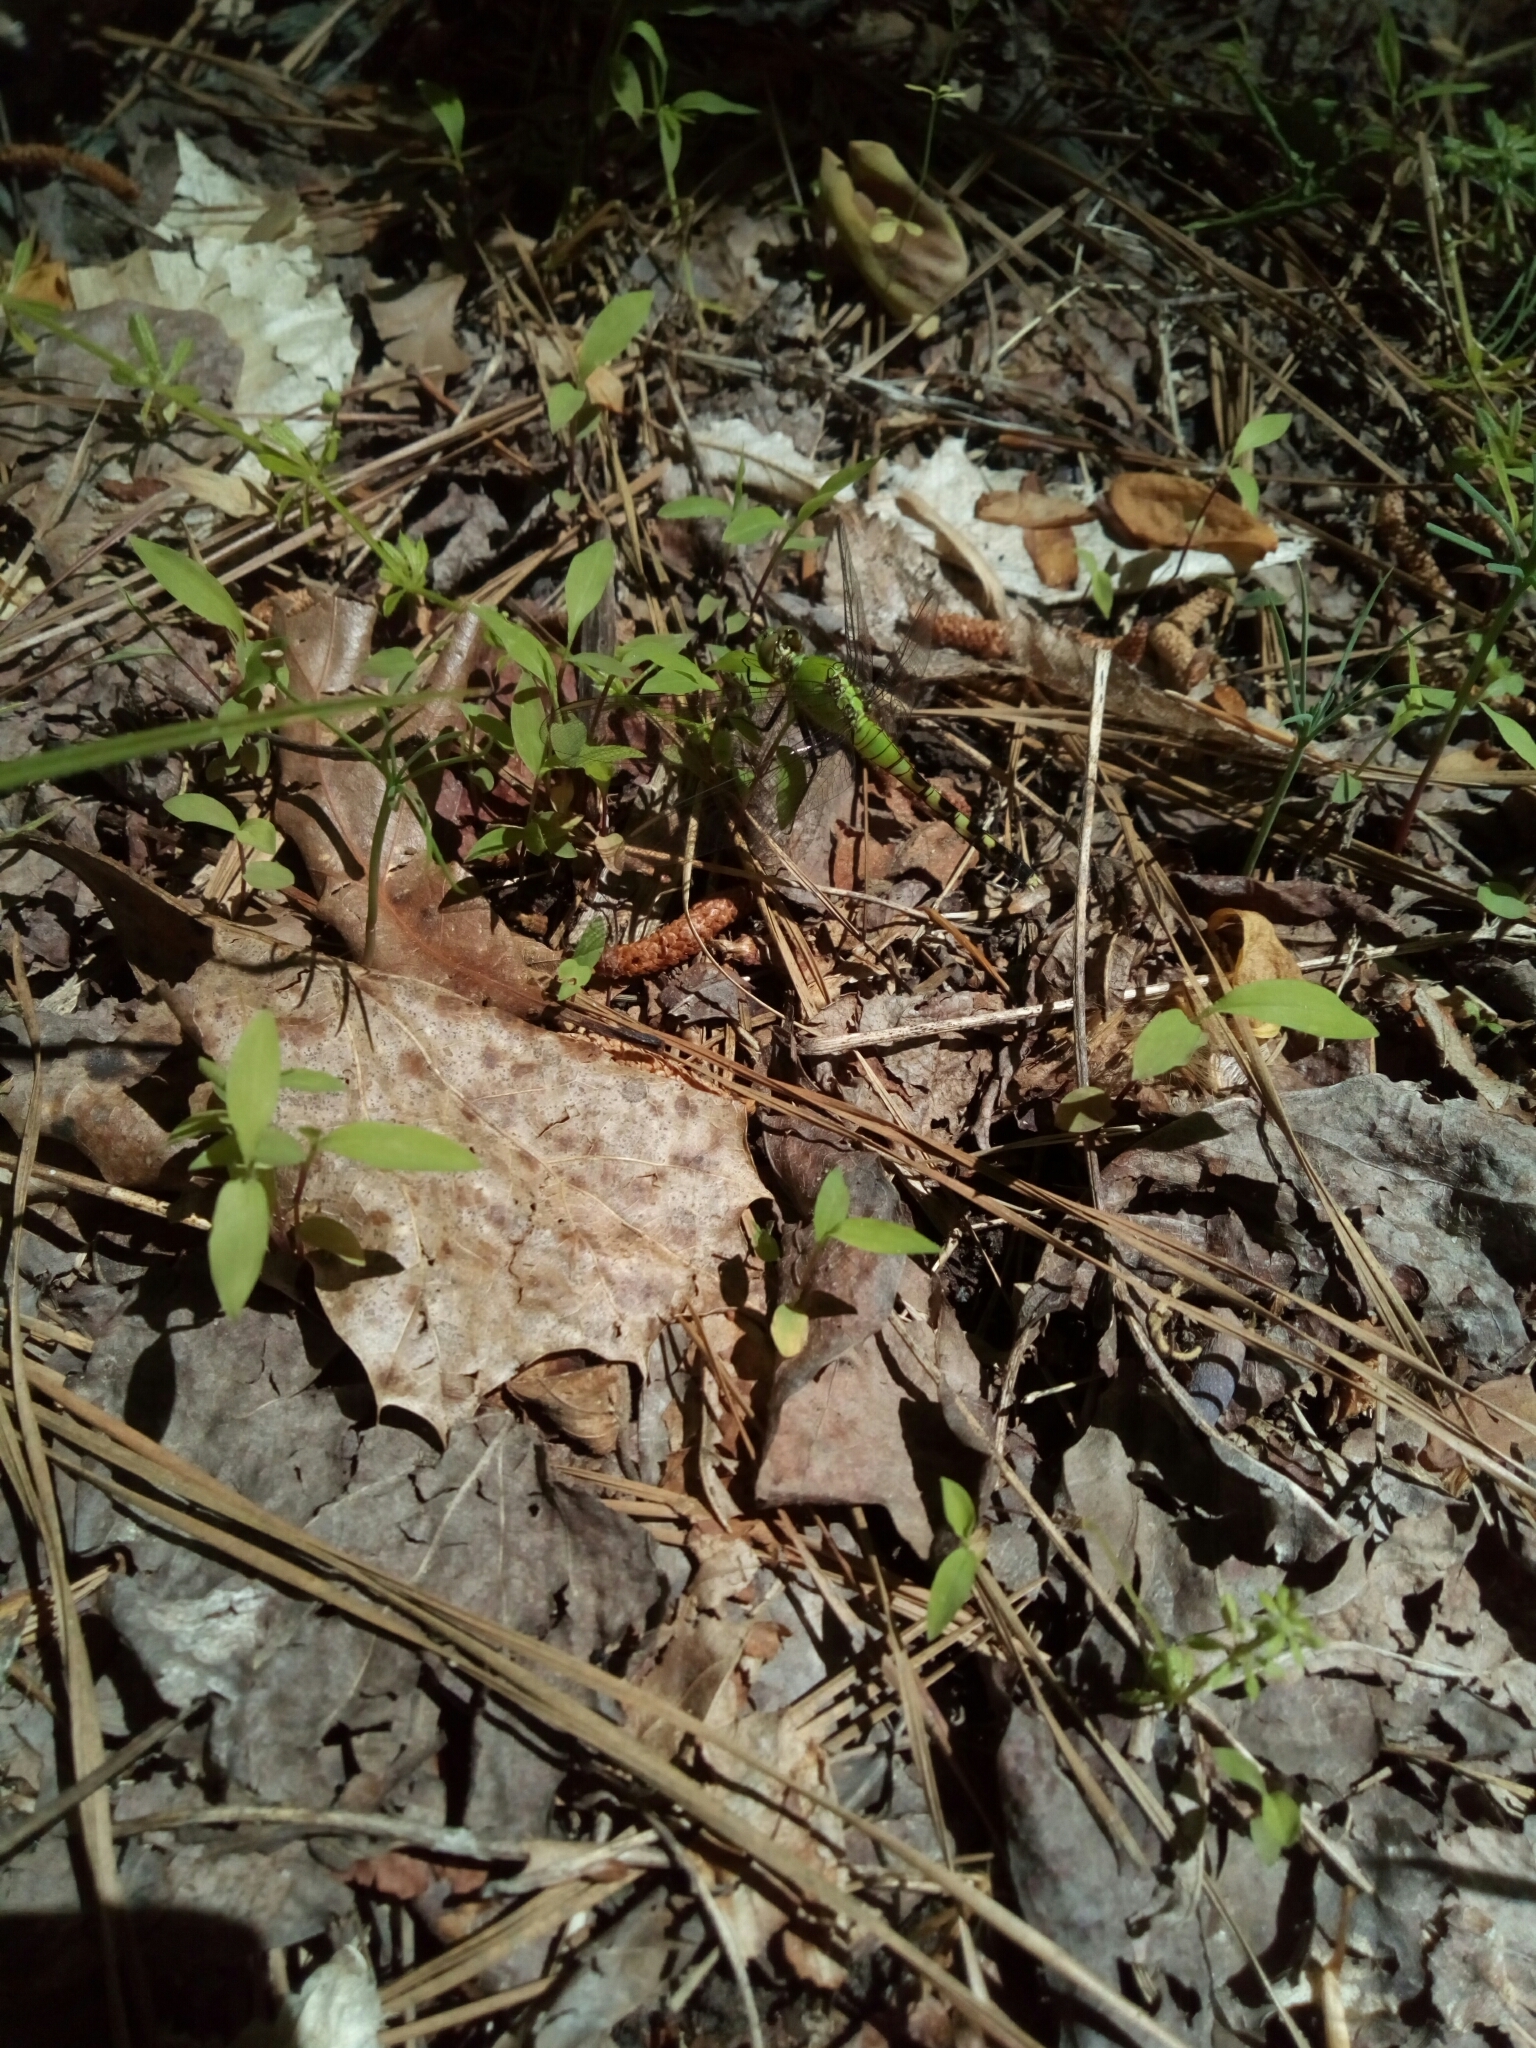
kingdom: Animalia
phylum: Arthropoda
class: Insecta
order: Odonata
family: Libellulidae
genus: Erythemis
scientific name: Erythemis simplicicollis
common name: Eastern pondhawk
